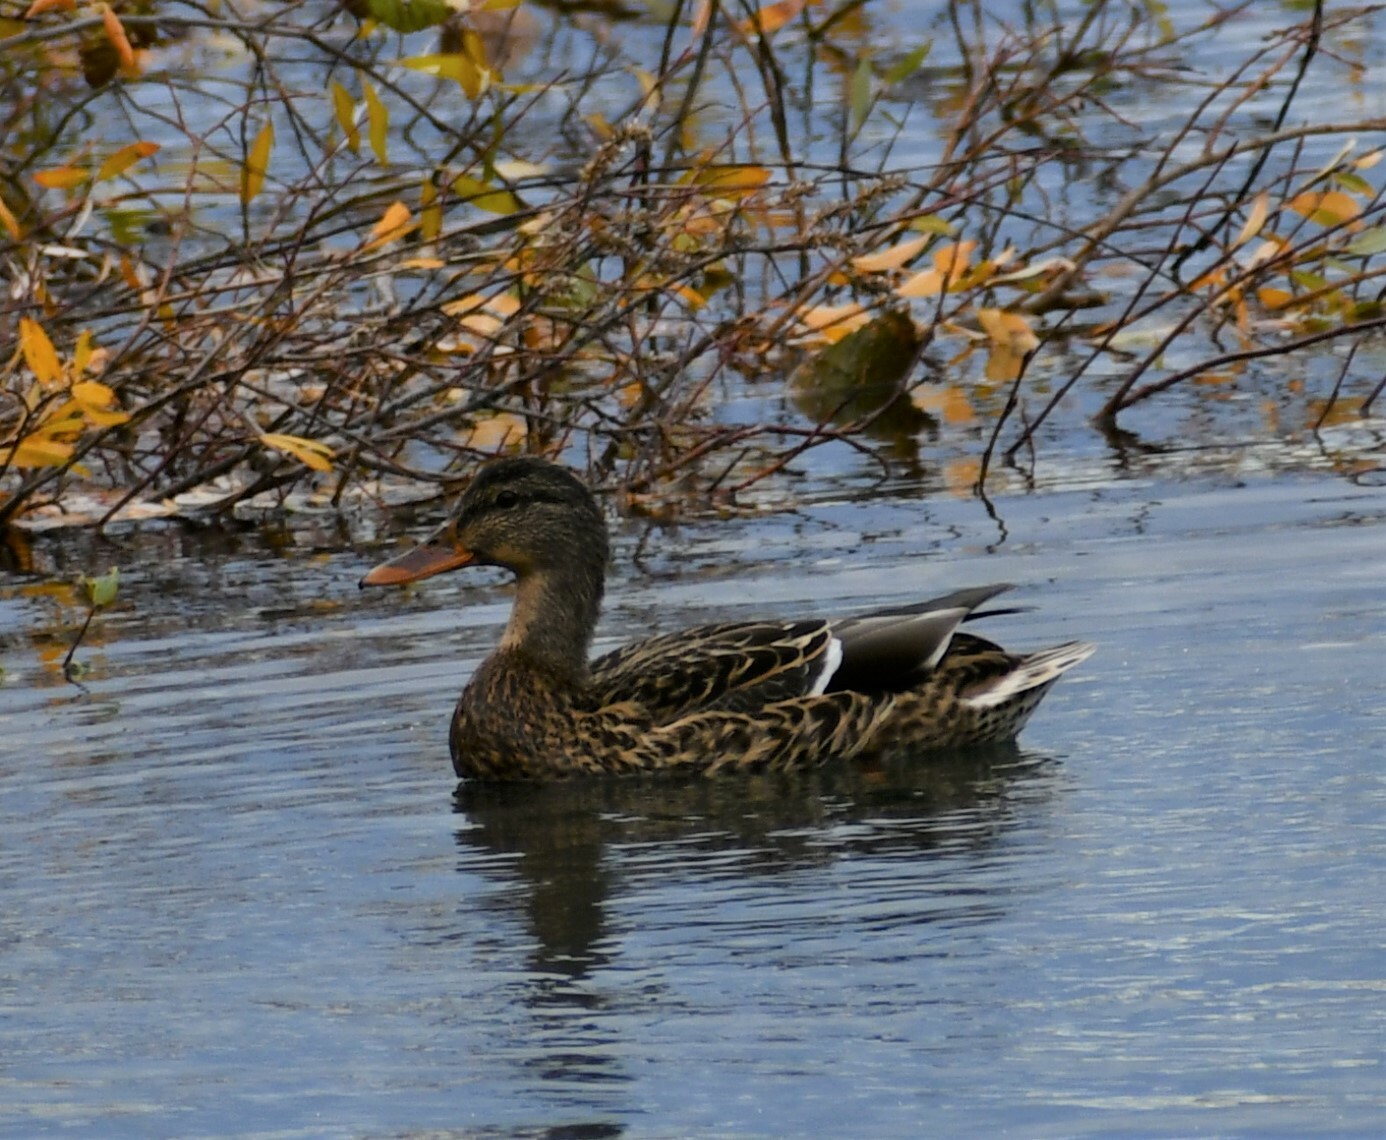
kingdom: Animalia
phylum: Chordata
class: Aves
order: Anseriformes
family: Anatidae
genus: Anas
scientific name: Anas platyrhynchos
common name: Mallard
